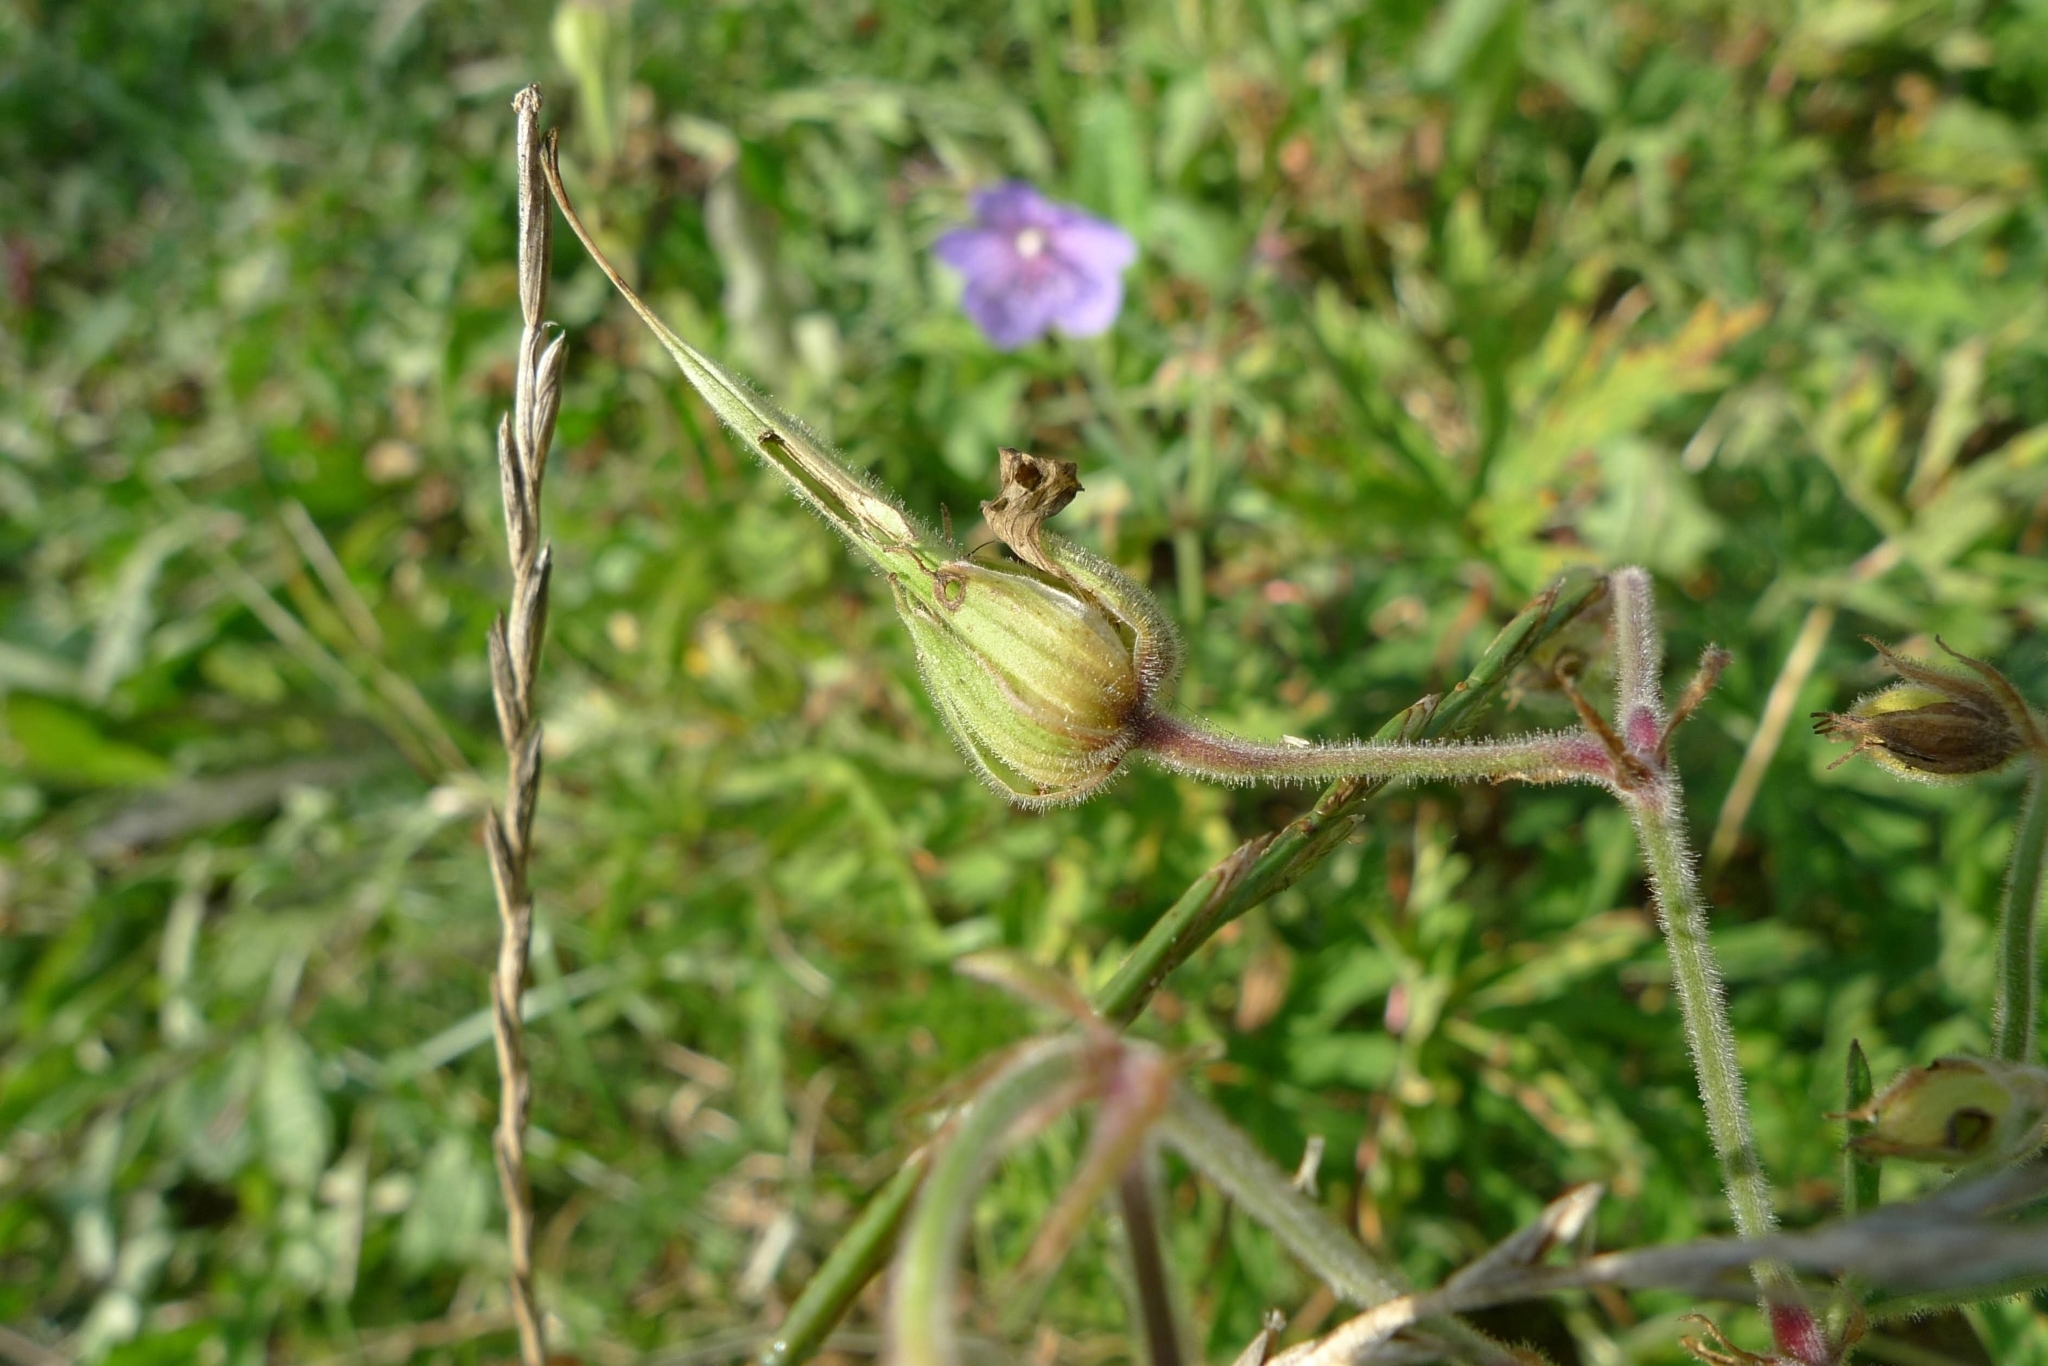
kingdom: Plantae
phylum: Tracheophyta
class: Magnoliopsida
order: Geraniales
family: Geraniaceae
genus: Geranium
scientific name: Geranium pratense
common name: Meadow crane's-bill
